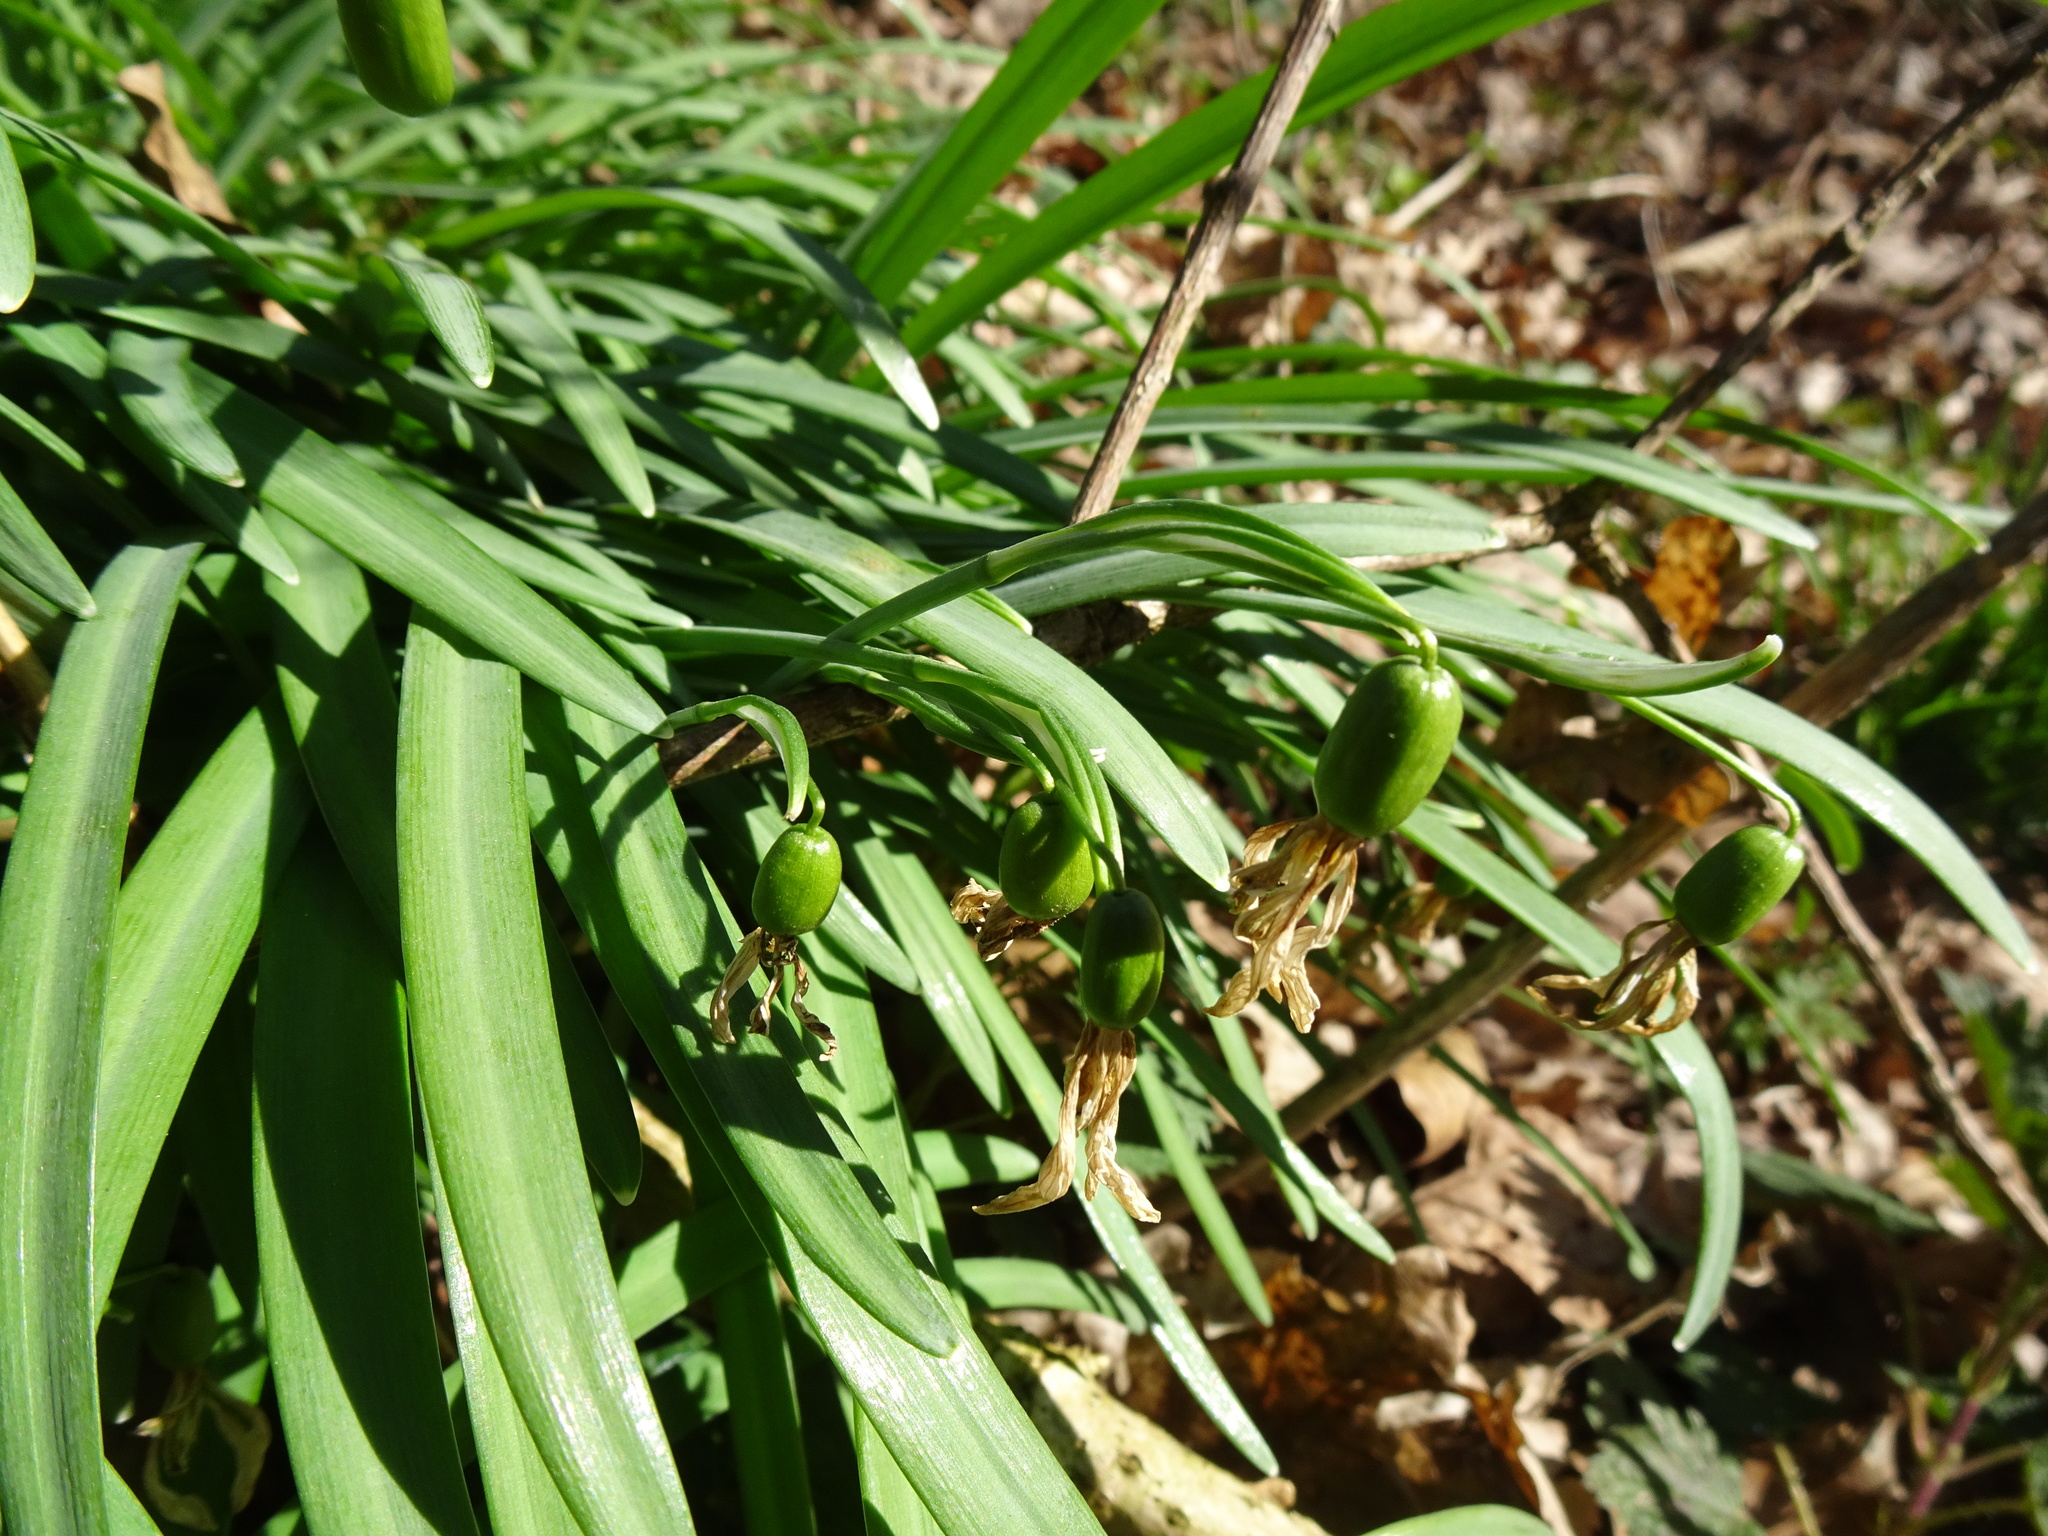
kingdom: Plantae
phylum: Tracheophyta
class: Liliopsida
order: Asparagales
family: Amaryllidaceae
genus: Galanthus
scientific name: Galanthus nivalis
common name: Snowdrop
